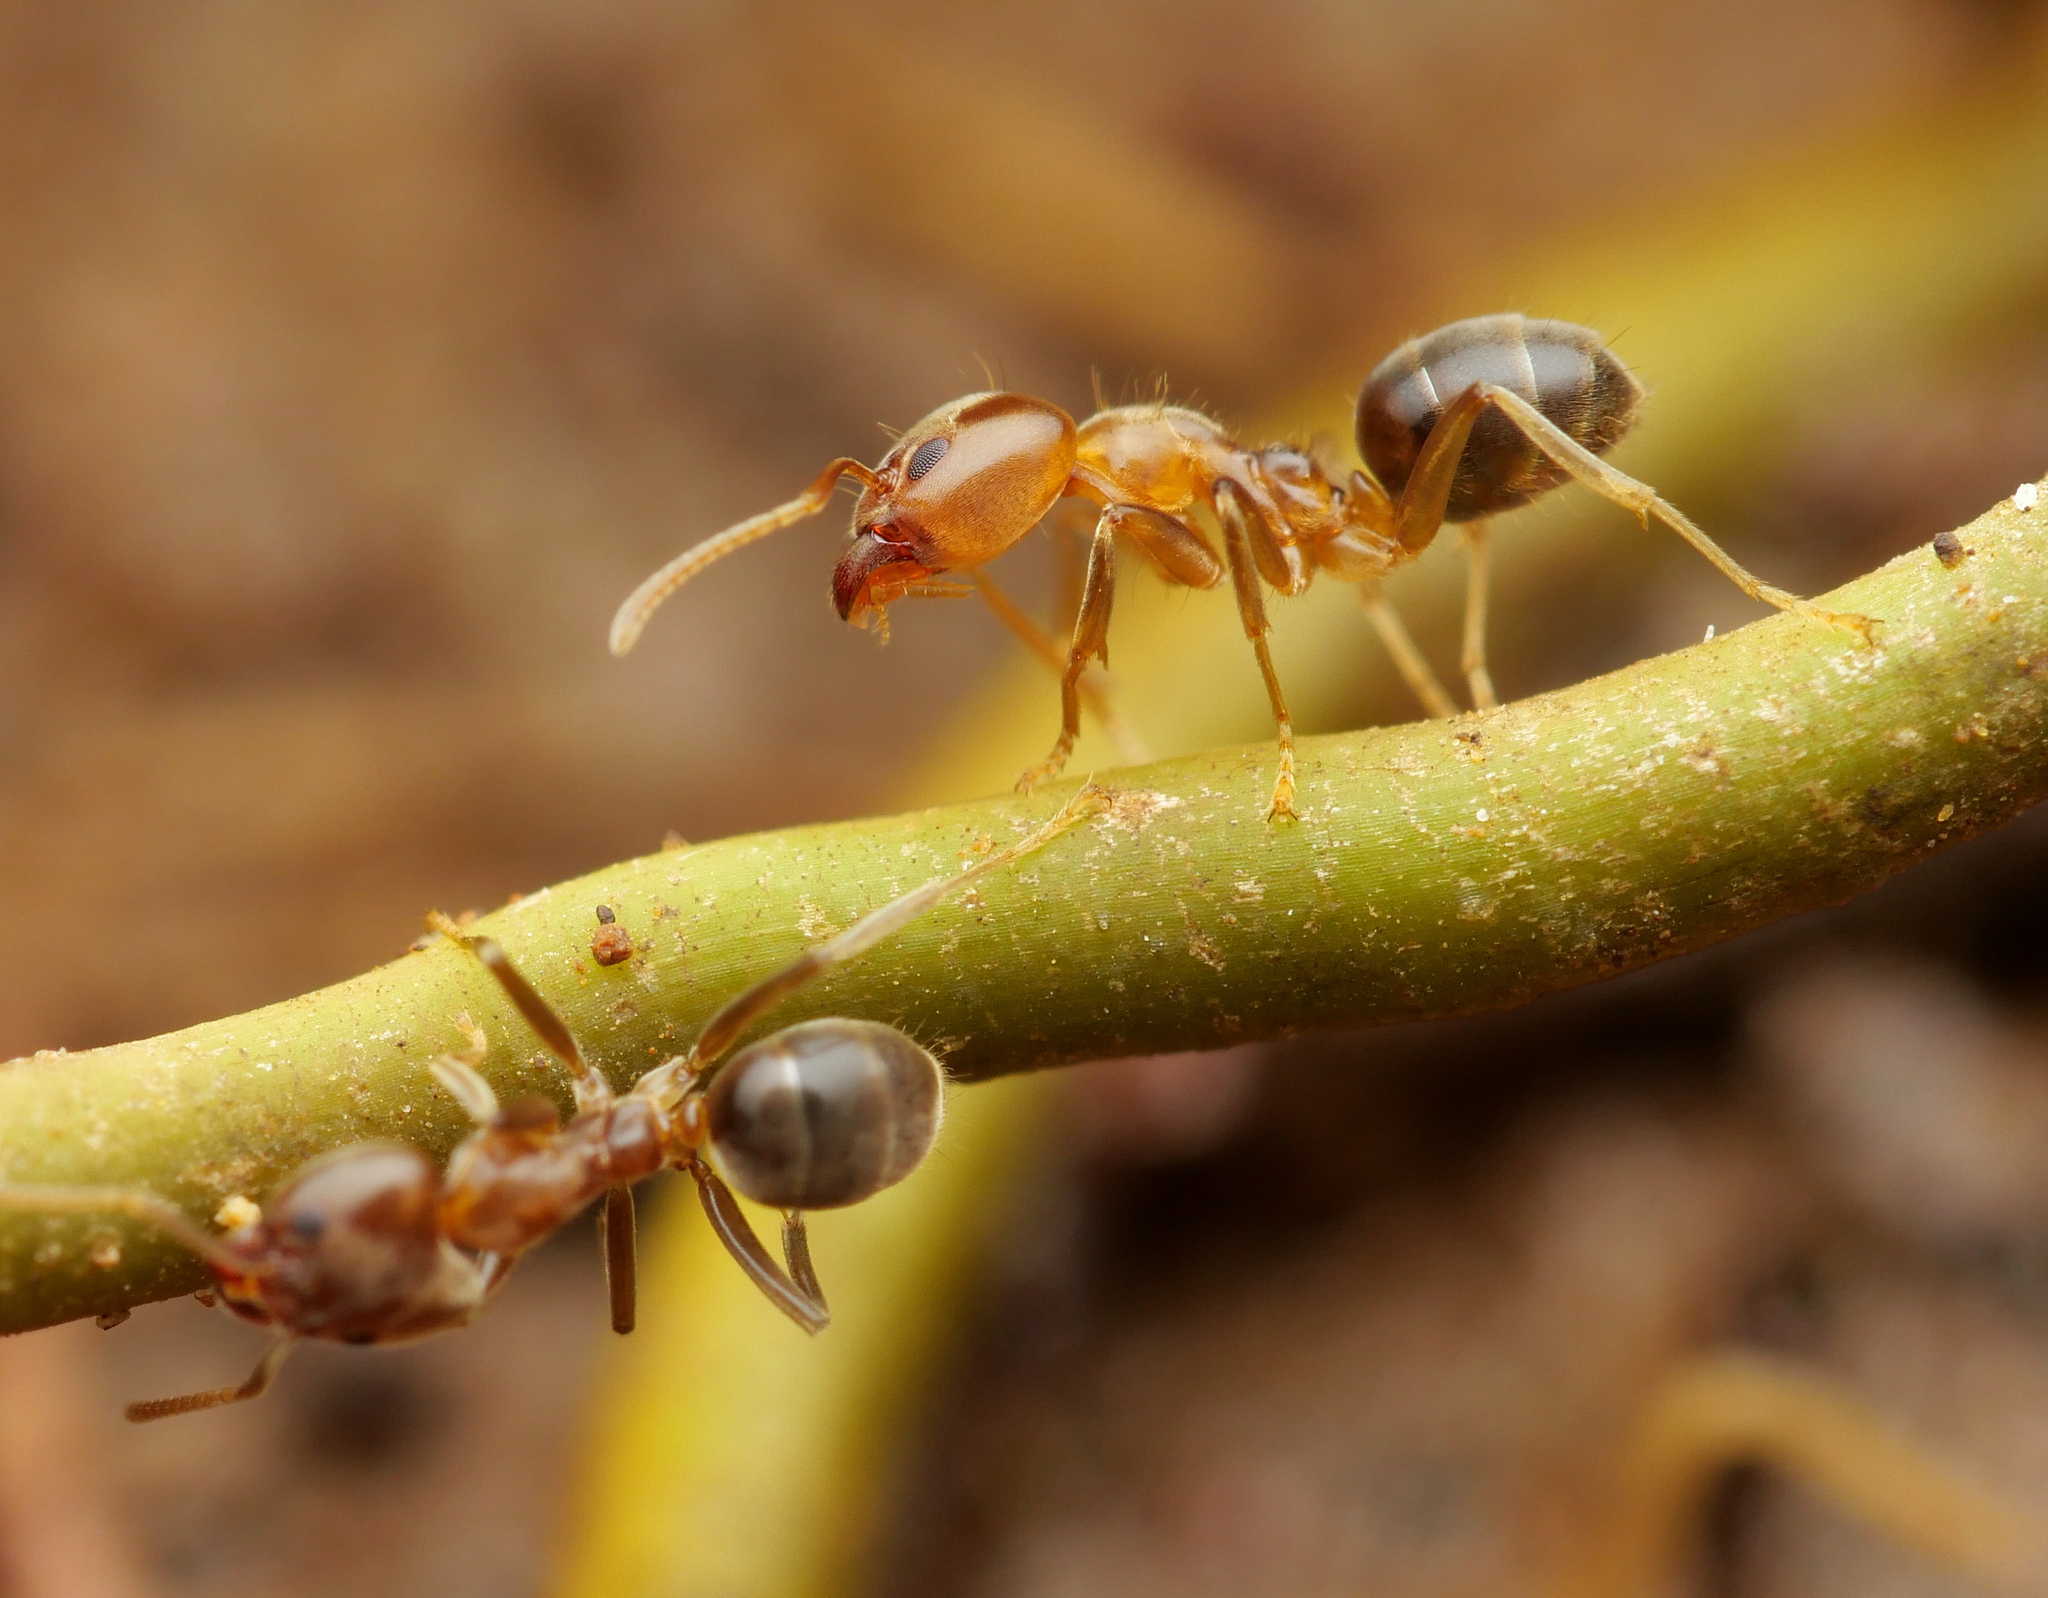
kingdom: Animalia
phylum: Arthropoda
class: Insecta
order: Hymenoptera
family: Formicidae
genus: Philidris
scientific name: Philidris cordata
